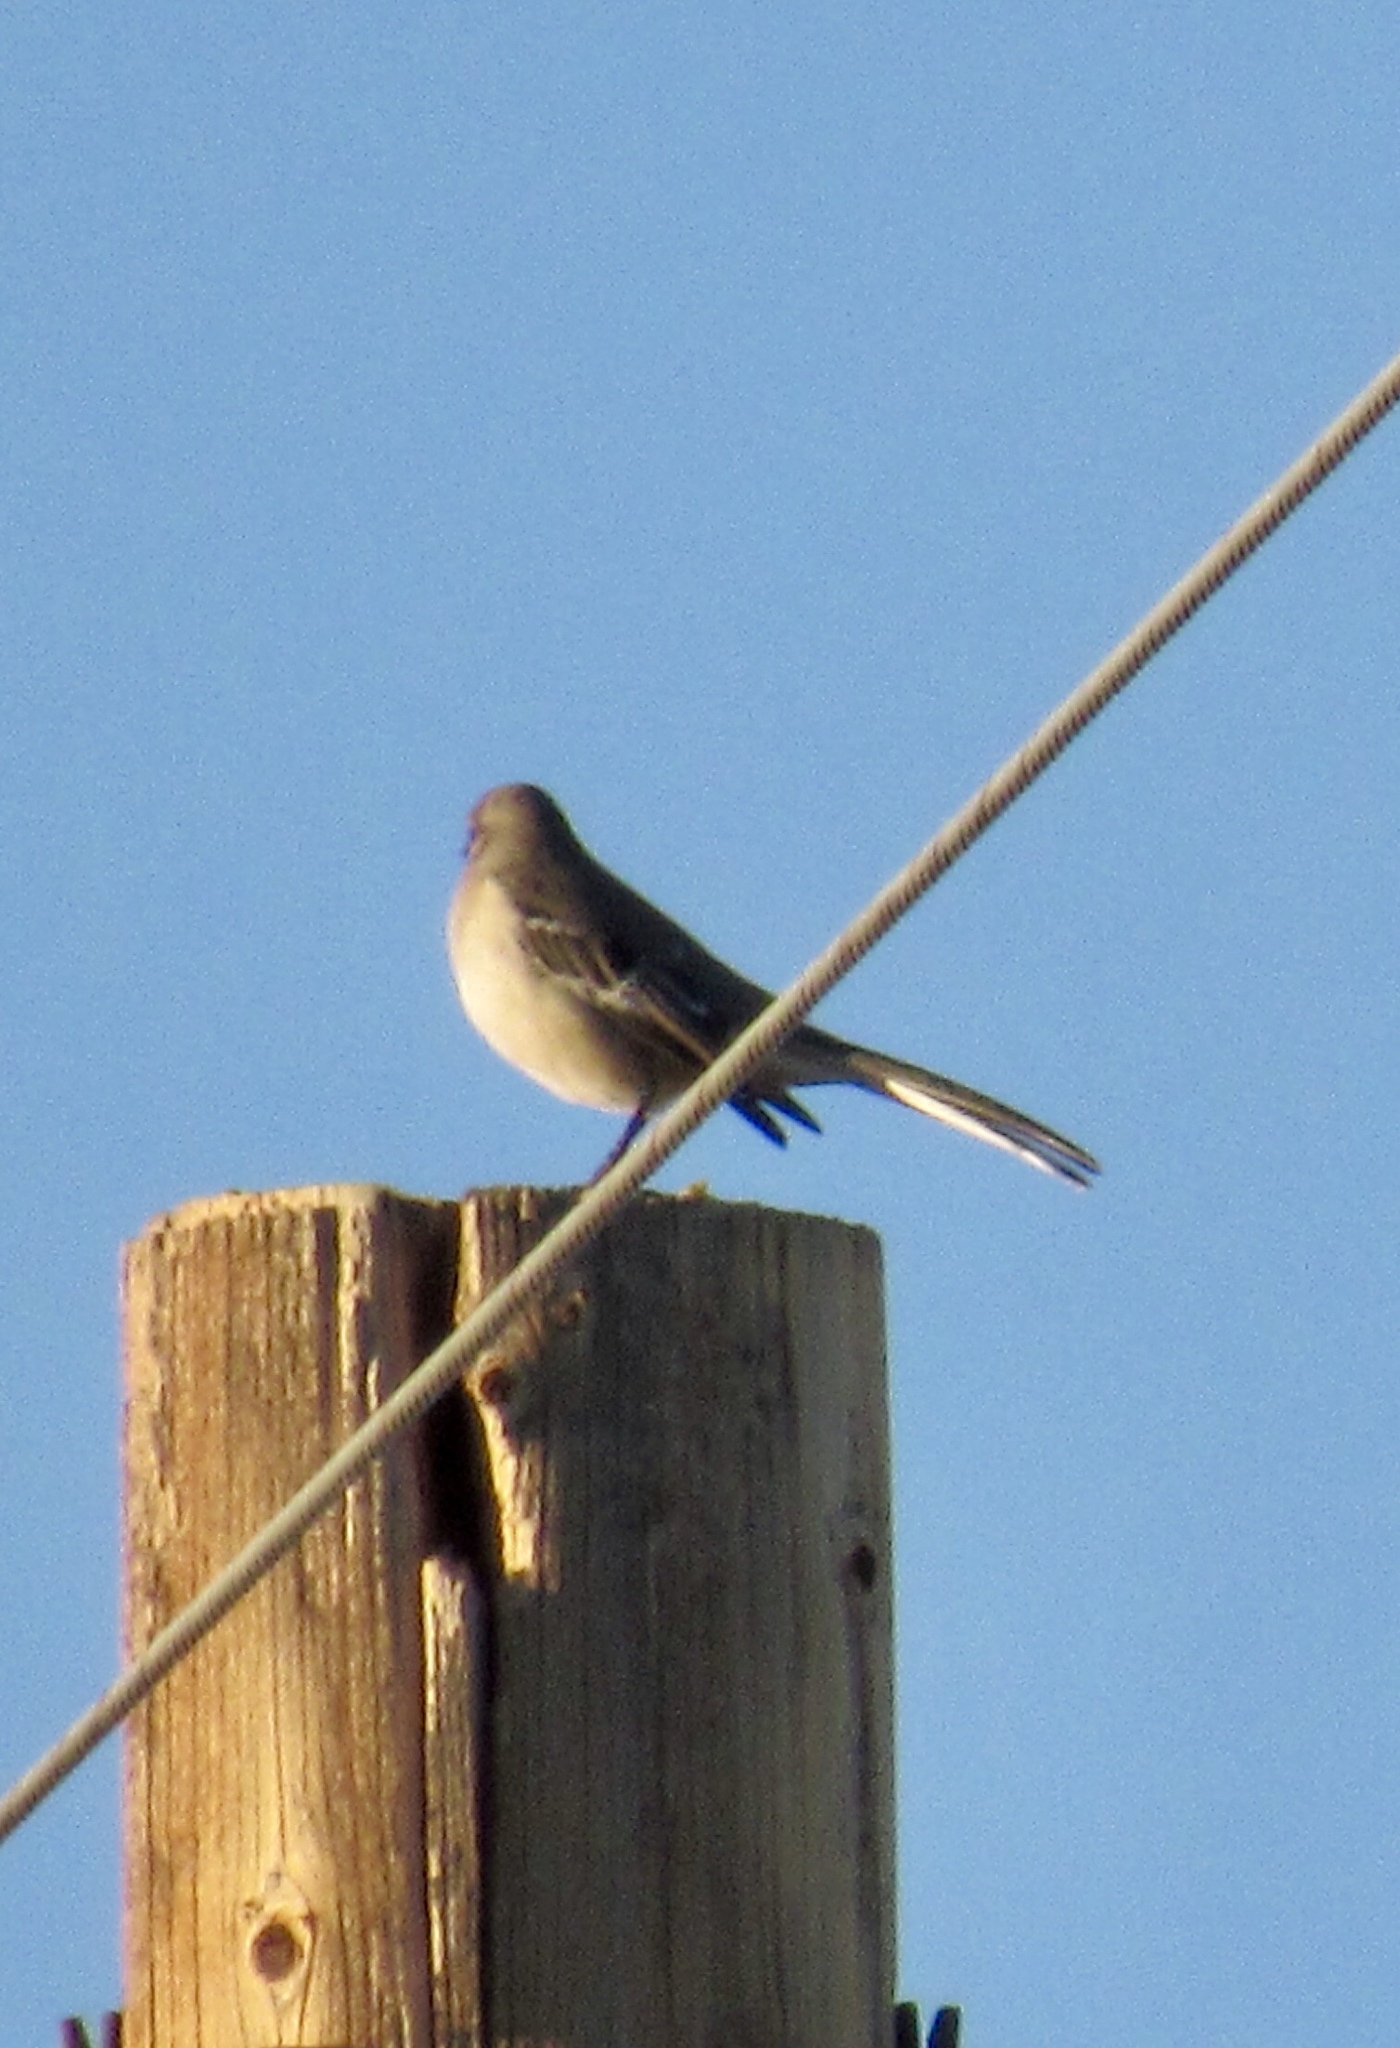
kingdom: Animalia
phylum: Chordata
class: Aves
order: Passeriformes
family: Mimidae
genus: Mimus
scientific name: Mimus polyglottos
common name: Northern mockingbird
